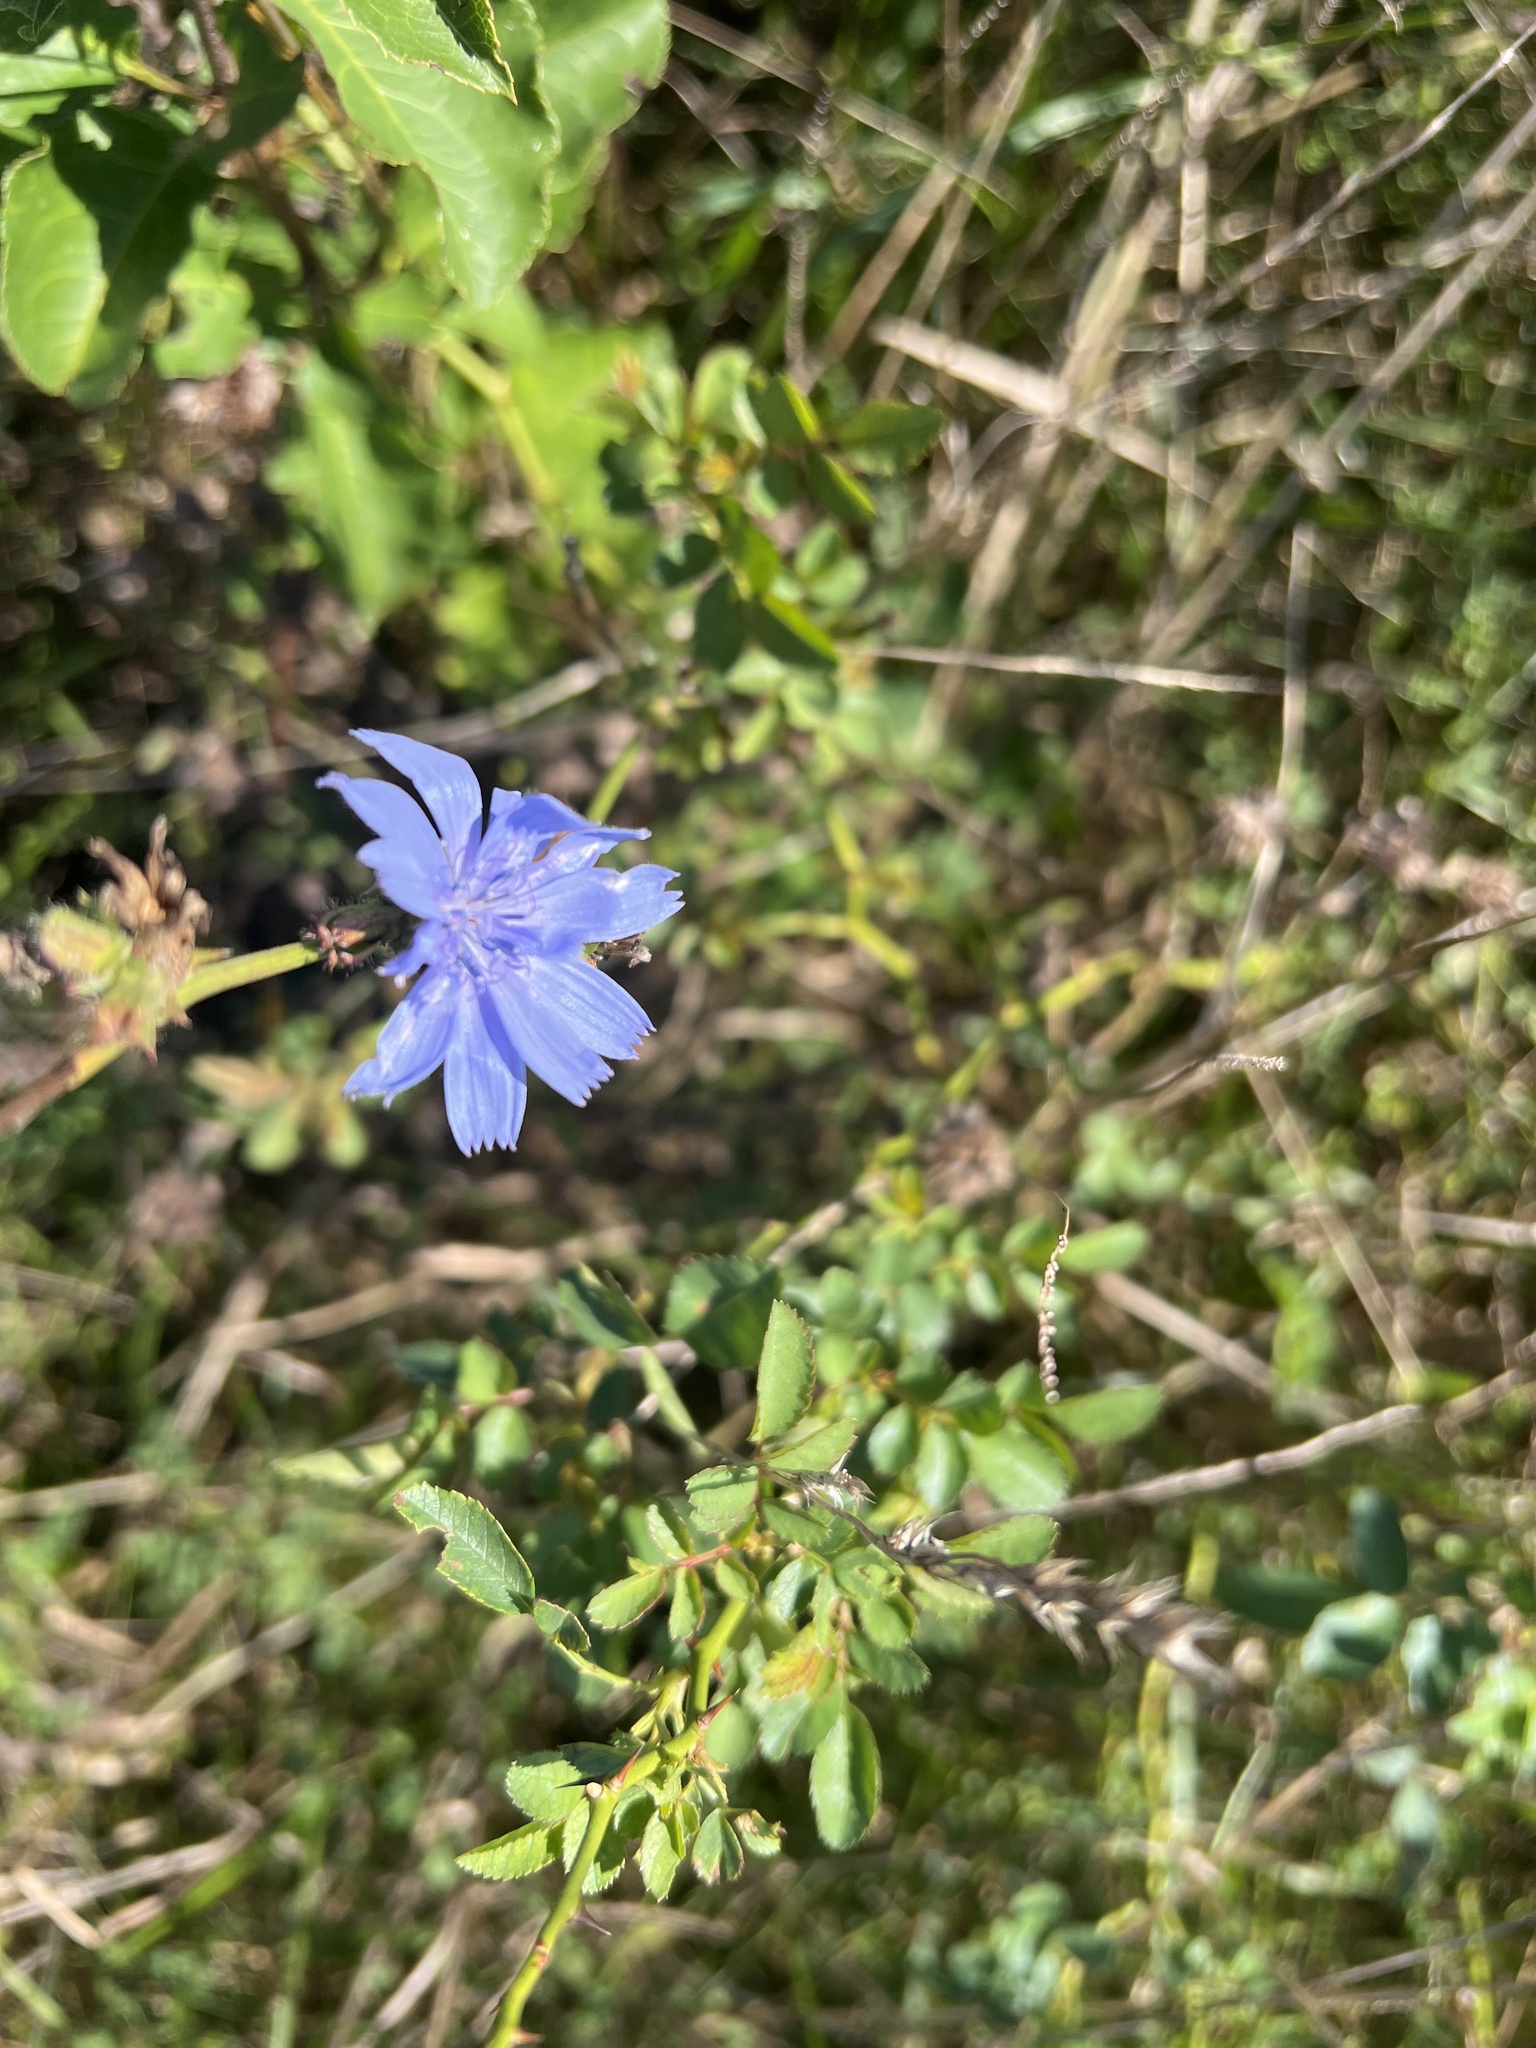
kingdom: Plantae
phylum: Tracheophyta
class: Magnoliopsida
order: Asterales
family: Asteraceae
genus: Cichorium
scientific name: Cichorium intybus
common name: Chicory
